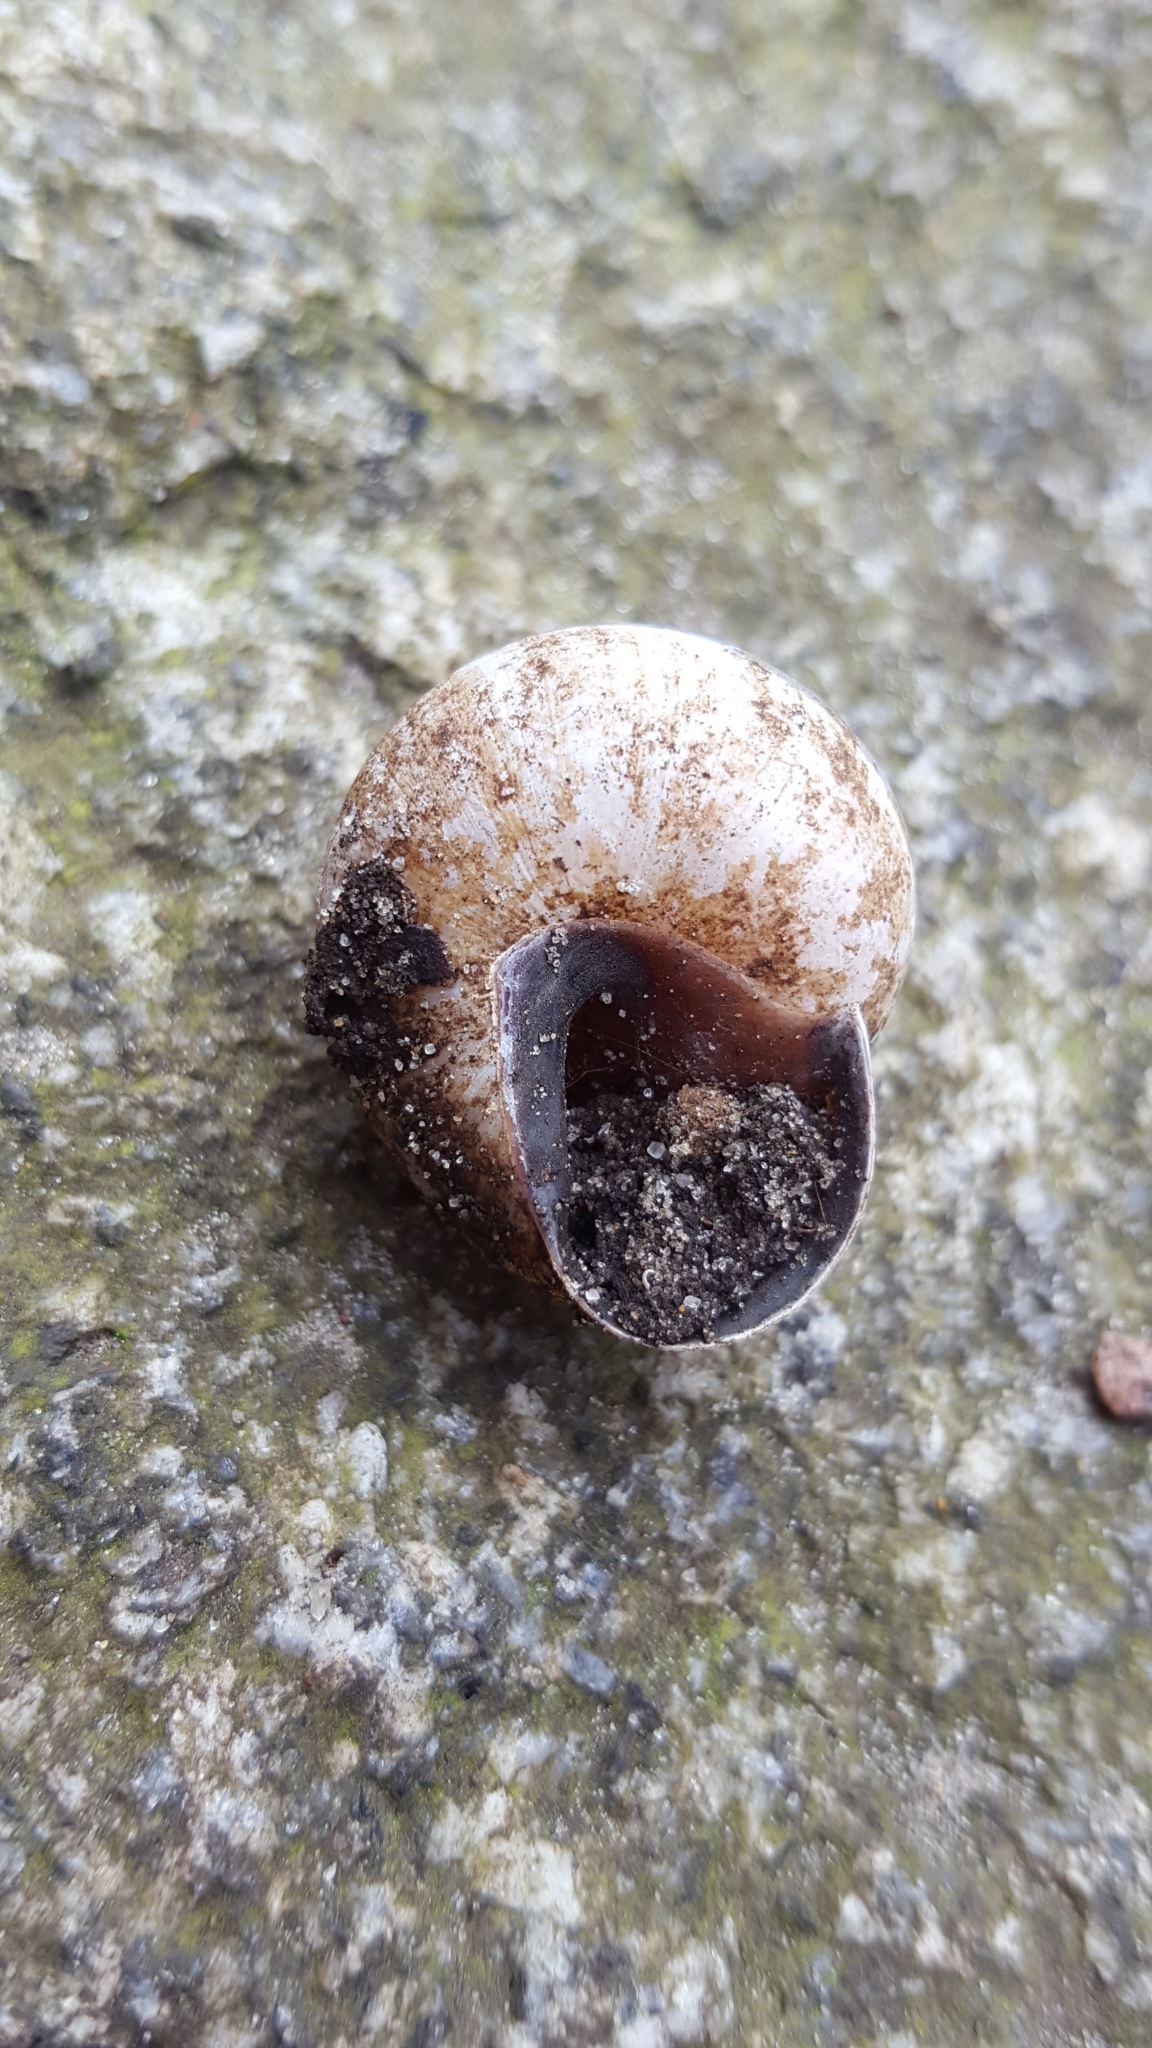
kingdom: Animalia
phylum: Mollusca
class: Gastropoda
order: Stylommatophora
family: Helicidae
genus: Cepaea
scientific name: Cepaea nemoralis
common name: Grovesnail
